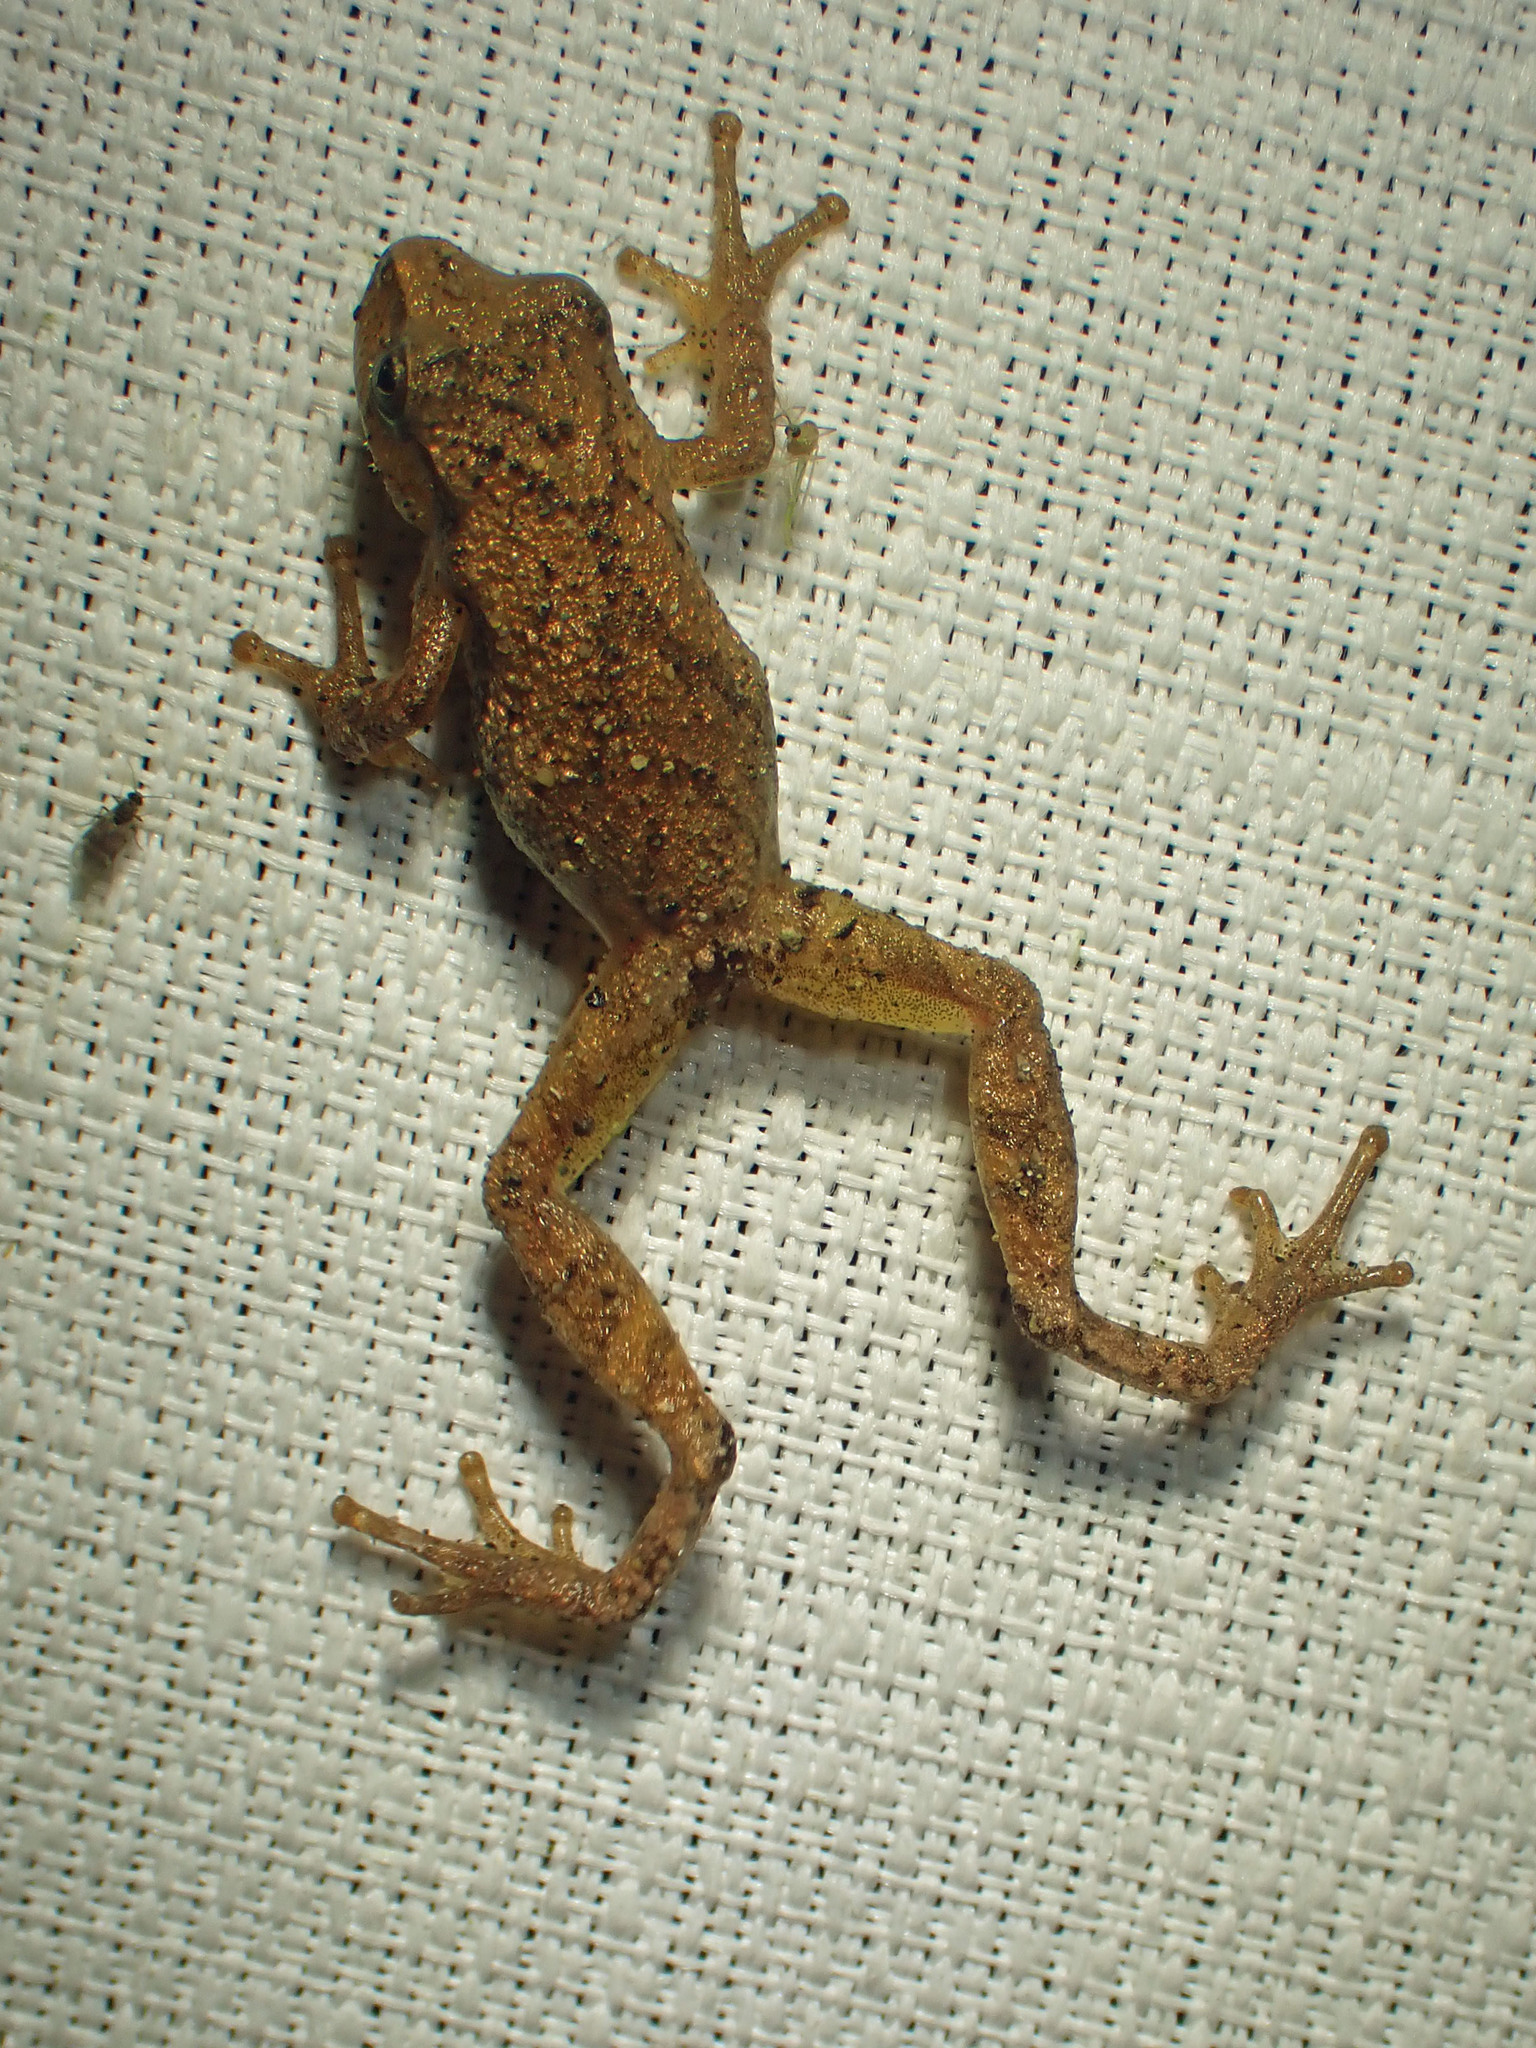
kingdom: Animalia
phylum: Chordata
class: Amphibia
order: Anura
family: Hylidae
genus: Pseudacris
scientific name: Pseudacris crucifer
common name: Spring peeper
